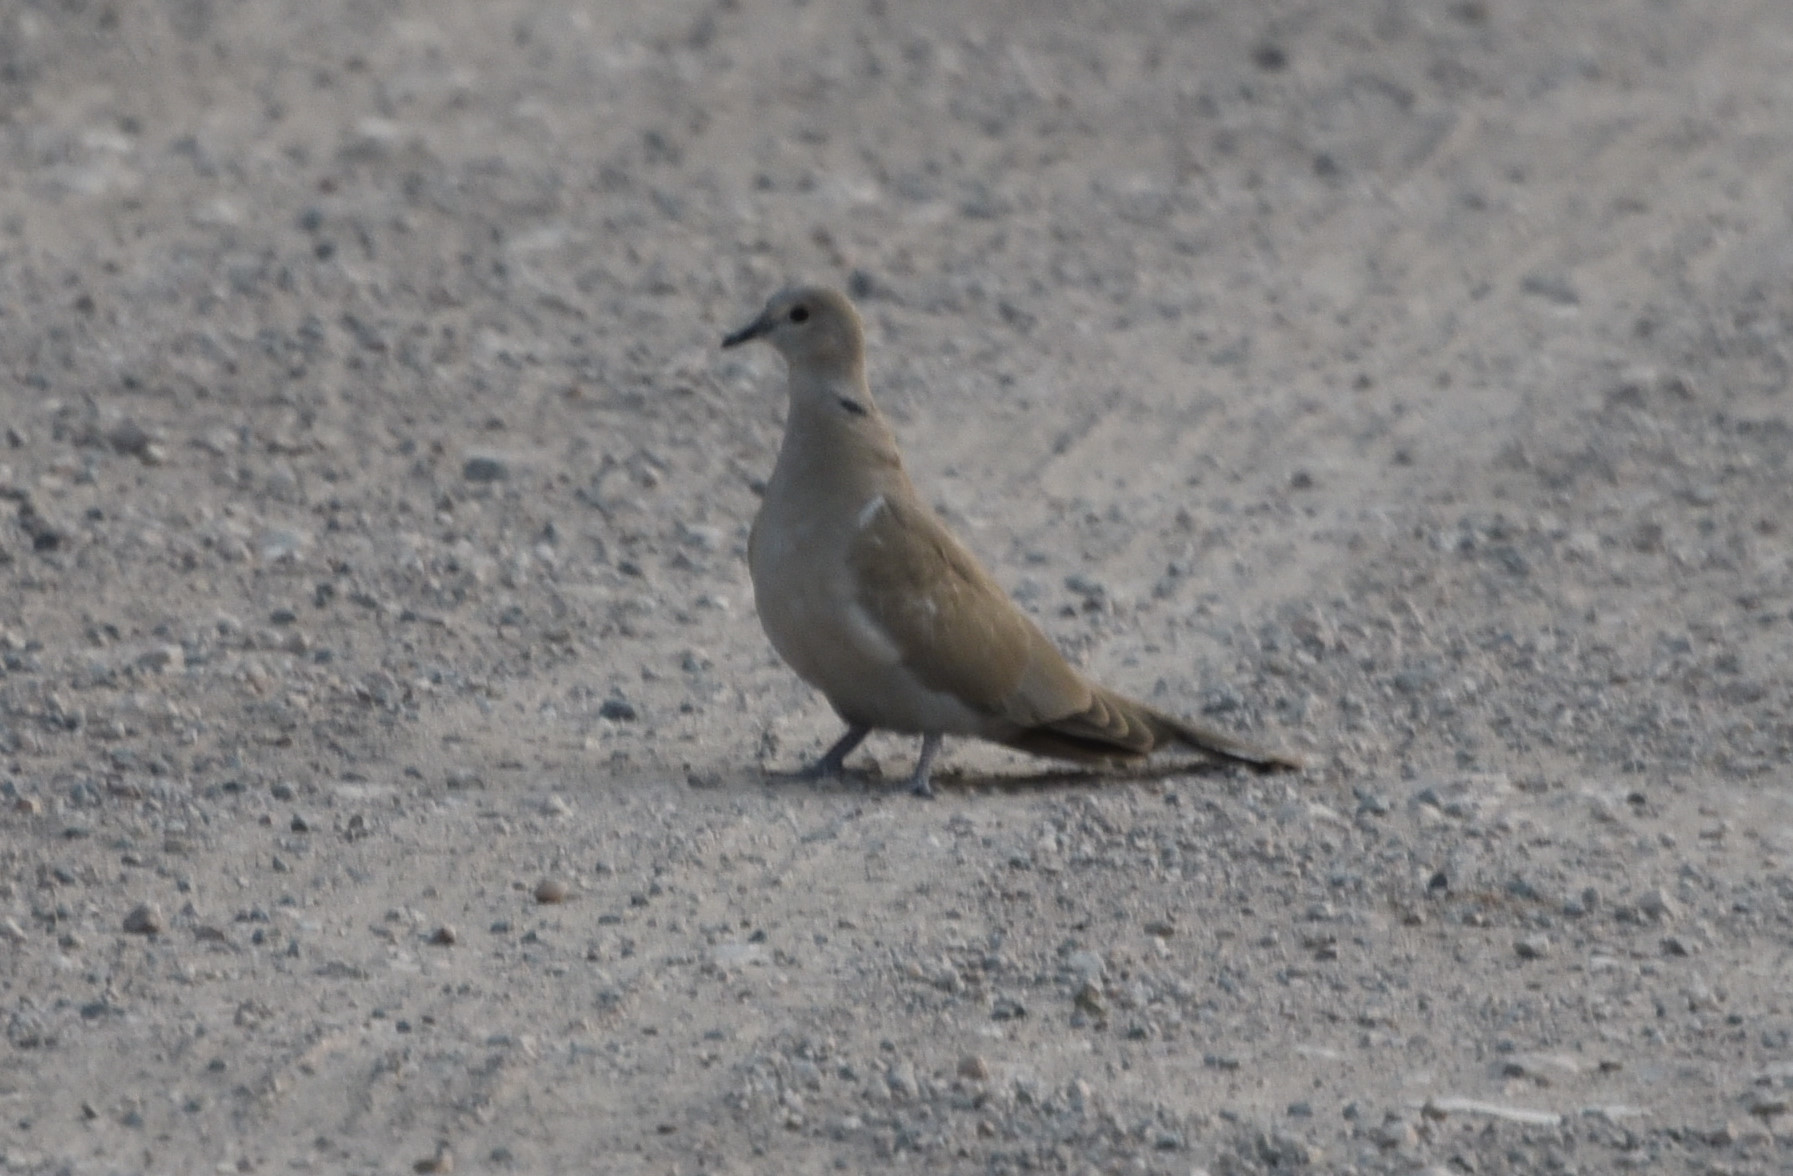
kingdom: Animalia
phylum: Chordata
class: Aves
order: Columbiformes
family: Columbidae
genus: Streptopelia
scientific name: Streptopelia decaocto
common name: Eurasian collared dove
